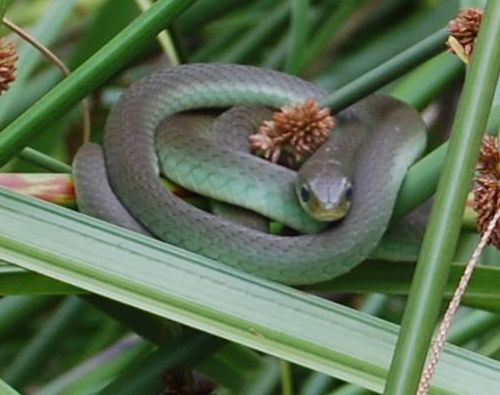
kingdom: Animalia
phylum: Chordata
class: Squamata
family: Colubridae
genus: Philothamnus
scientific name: Philothamnus hoplogaster
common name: Green water snake
